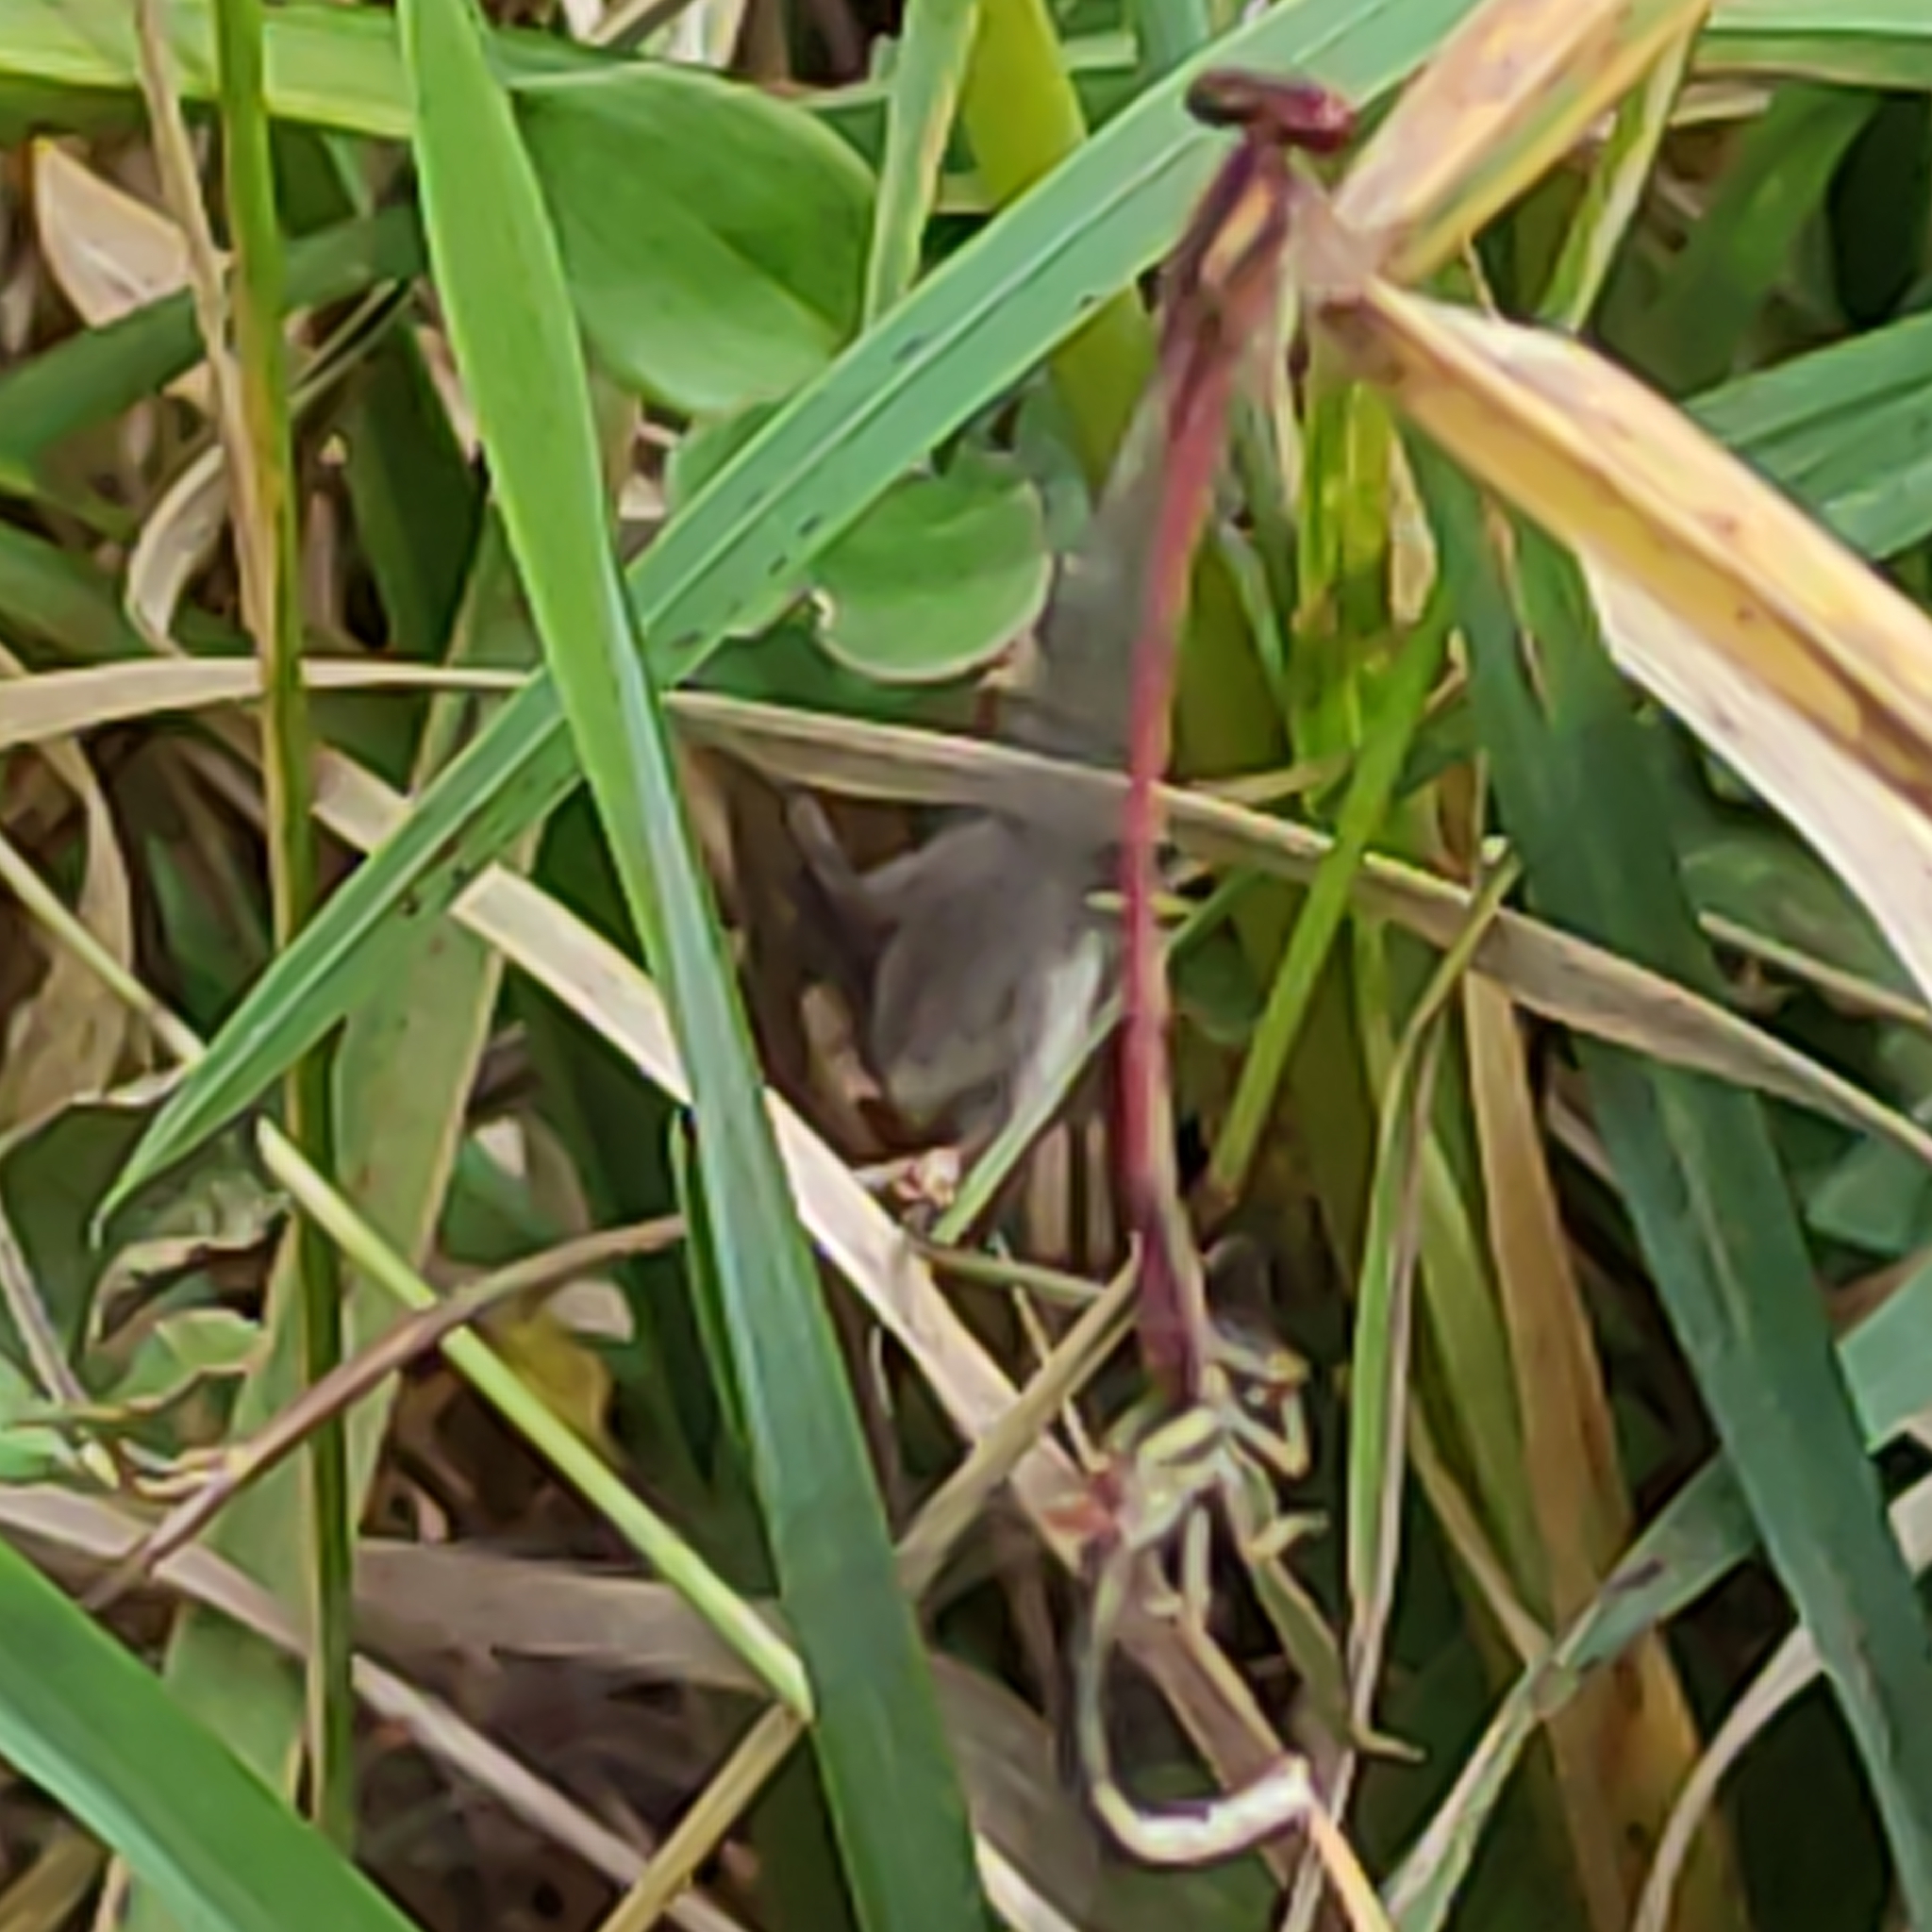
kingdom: Animalia
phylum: Arthropoda
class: Insecta
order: Odonata
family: Coenagrionidae
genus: Xanthocnemis
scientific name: Xanthocnemis zealandica
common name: Common redcoat damselfly
